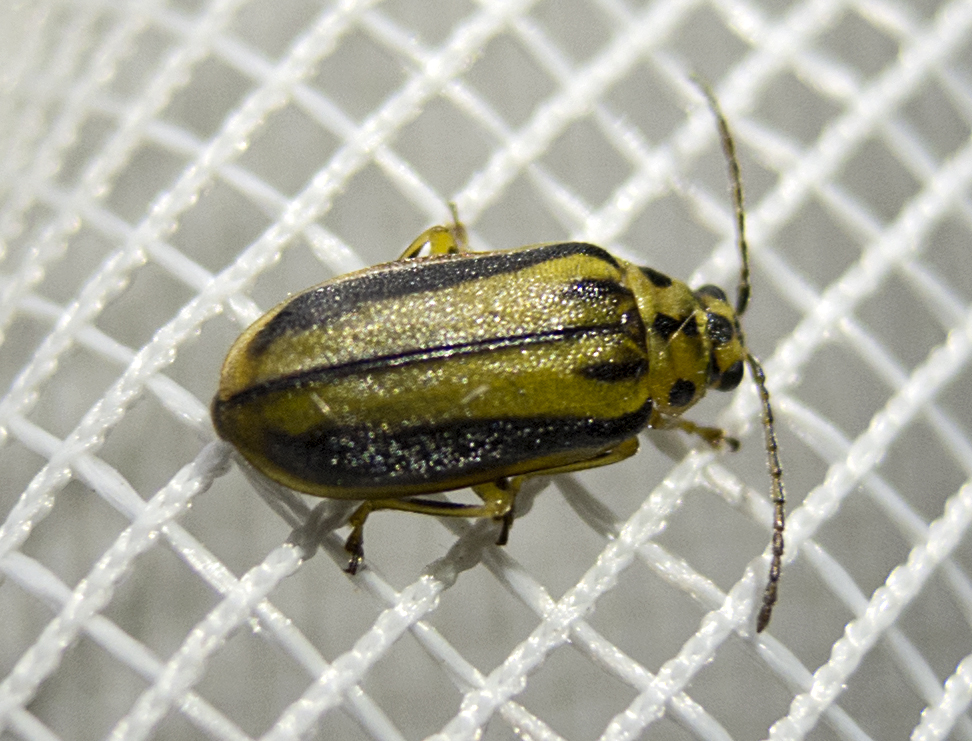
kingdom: Animalia
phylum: Arthropoda
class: Insecta
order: Coleoptera
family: Chrysomelidae
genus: Xanthogaleruca
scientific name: Xanthogaleruca luteola
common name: Elm leaf beetle
